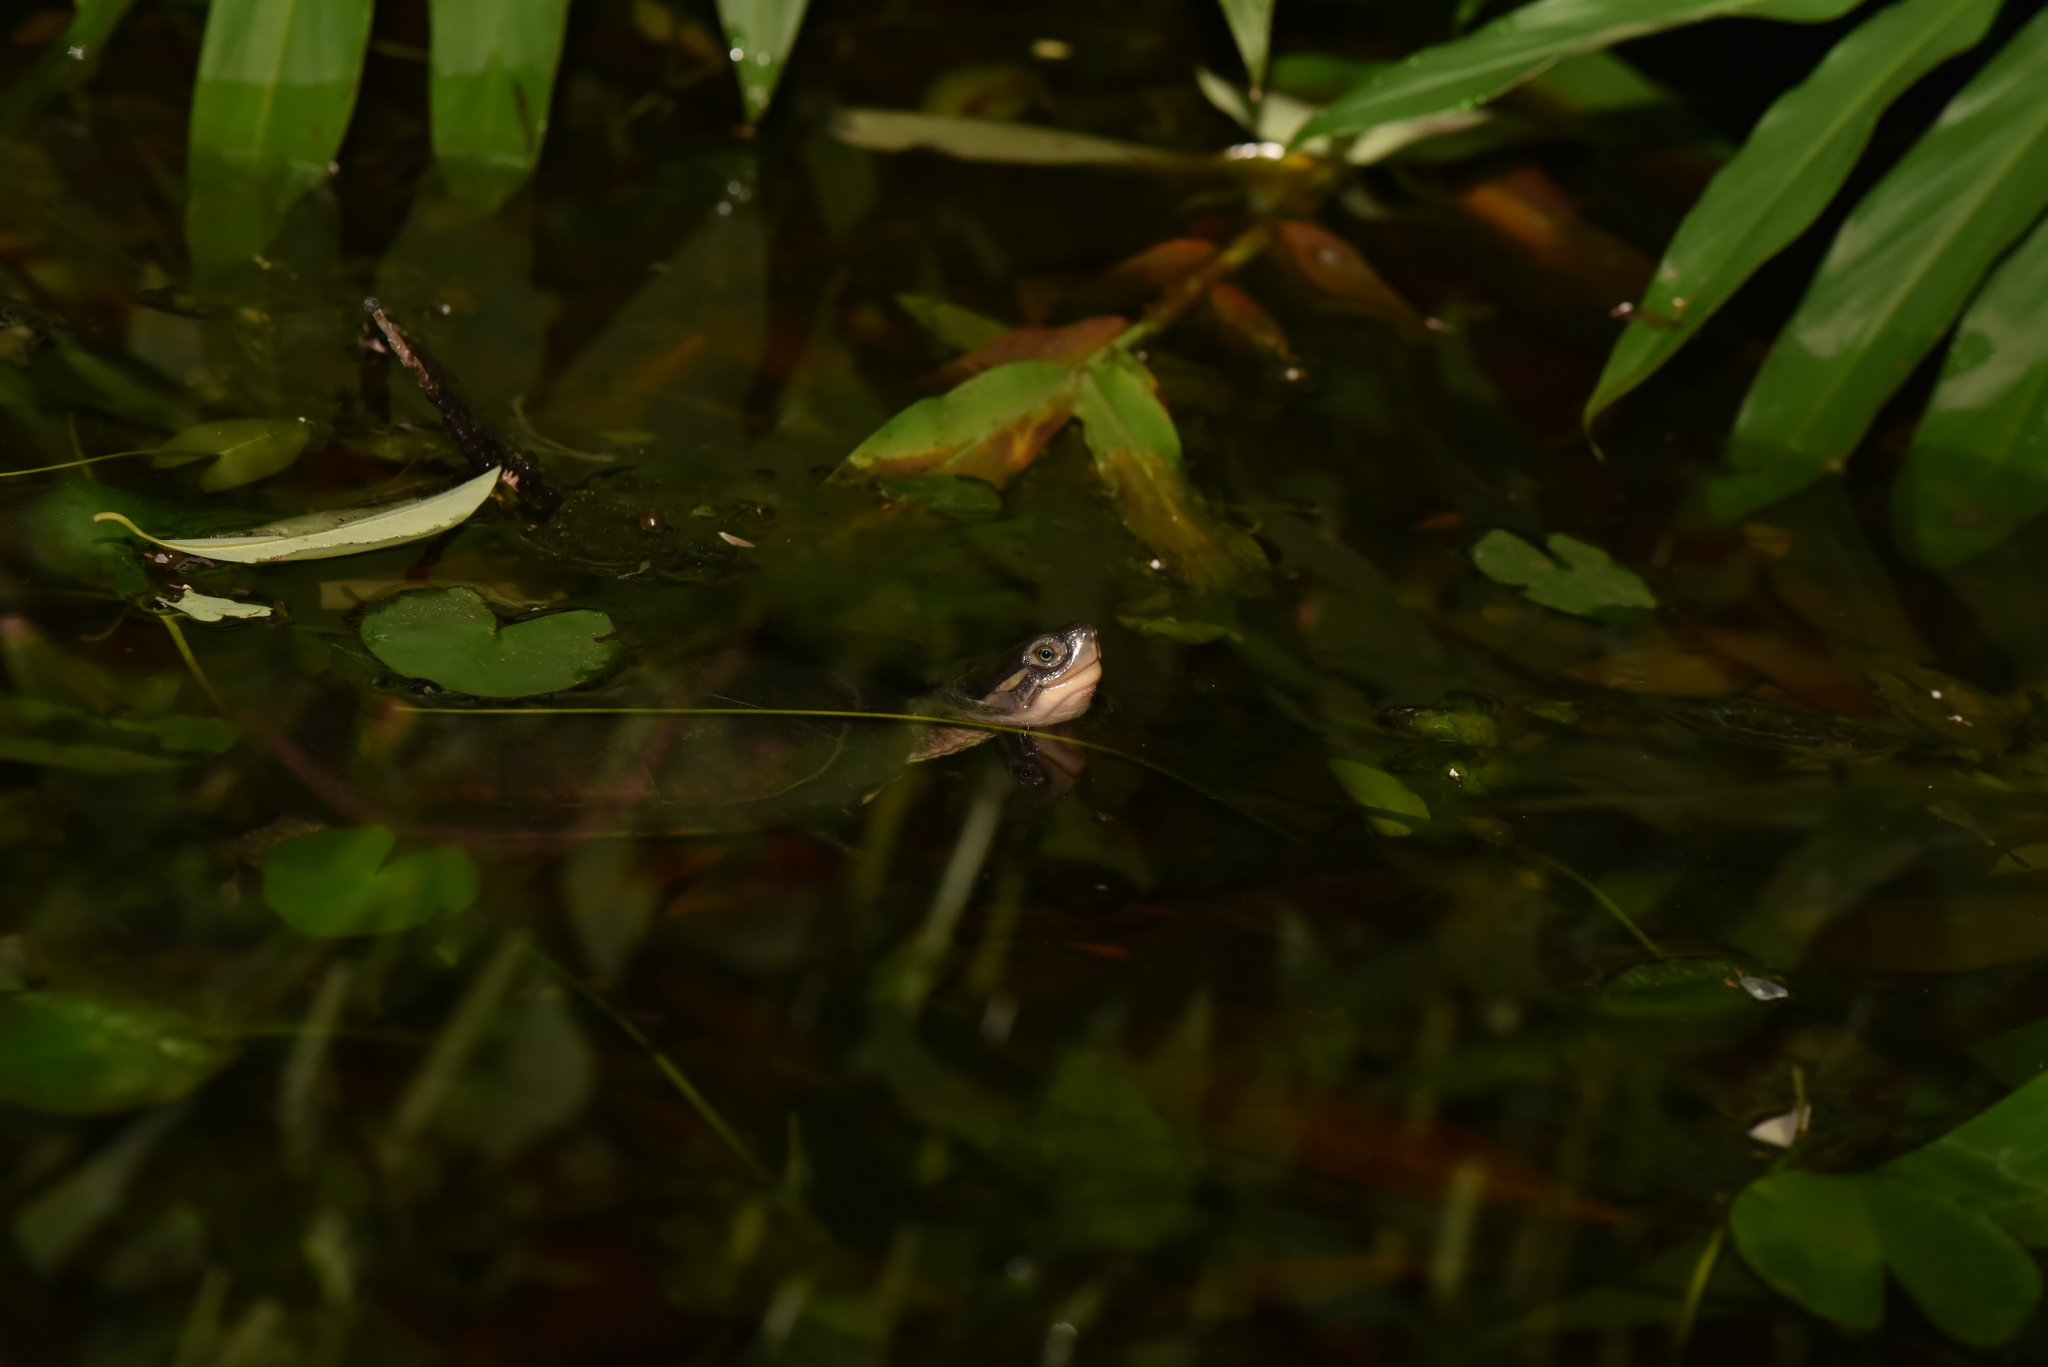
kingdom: Animalia
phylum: Chordata
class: Testudines
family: Geoemydidae
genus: Mauremys
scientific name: Mauremys mutica
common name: Yellow pond turtle
